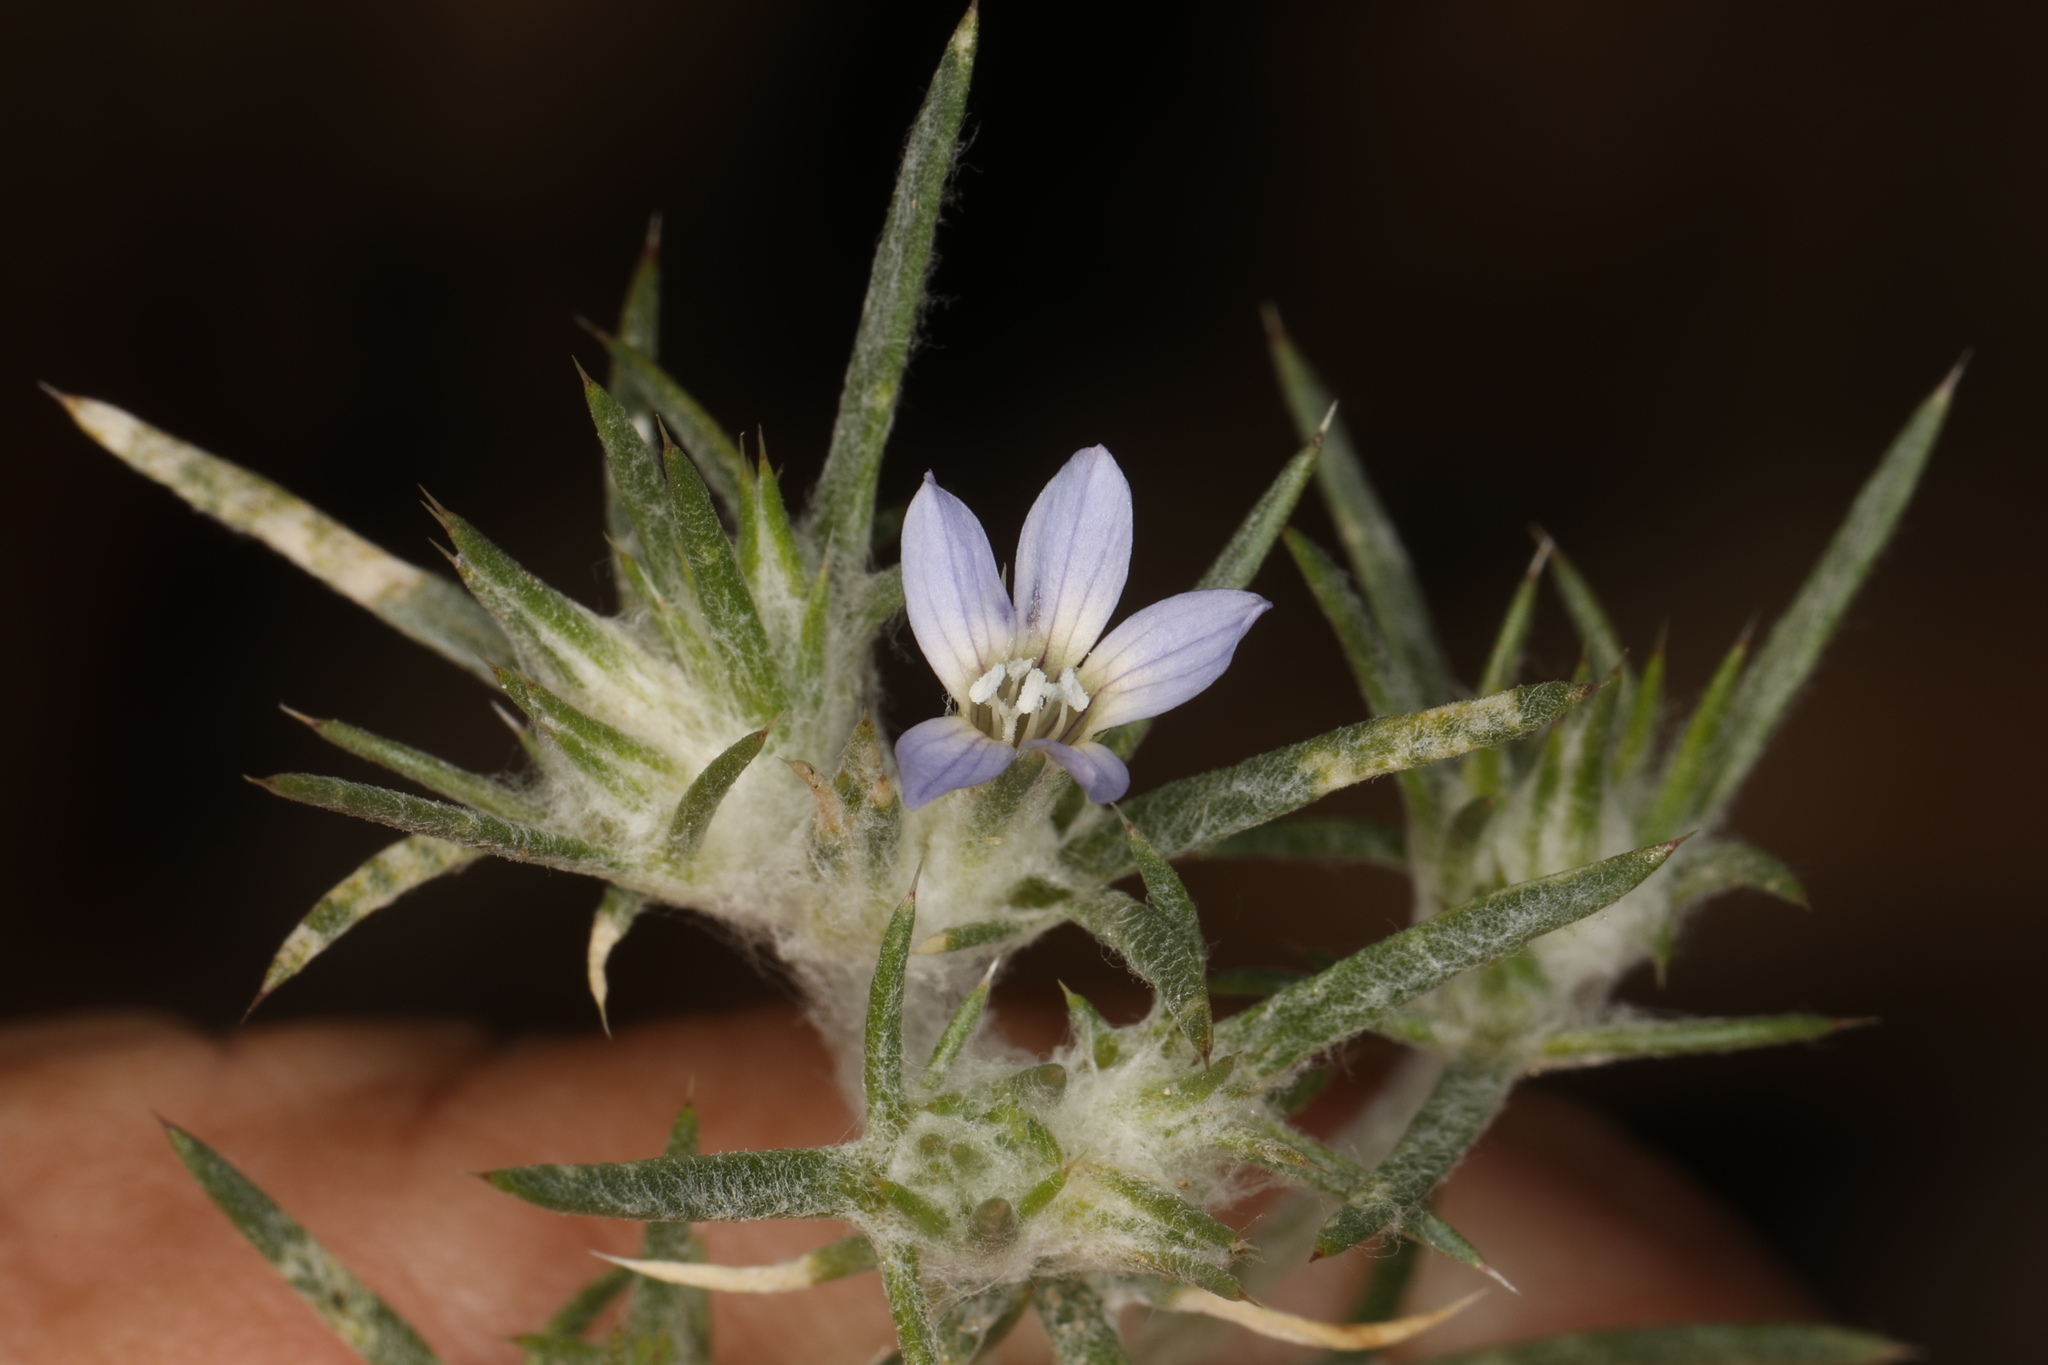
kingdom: Plantae
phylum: Tracheophyta
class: Magnoliopsida
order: Ericales
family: Polemoniaceae
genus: Eriastrum
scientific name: Eriastrum wilcoxii
